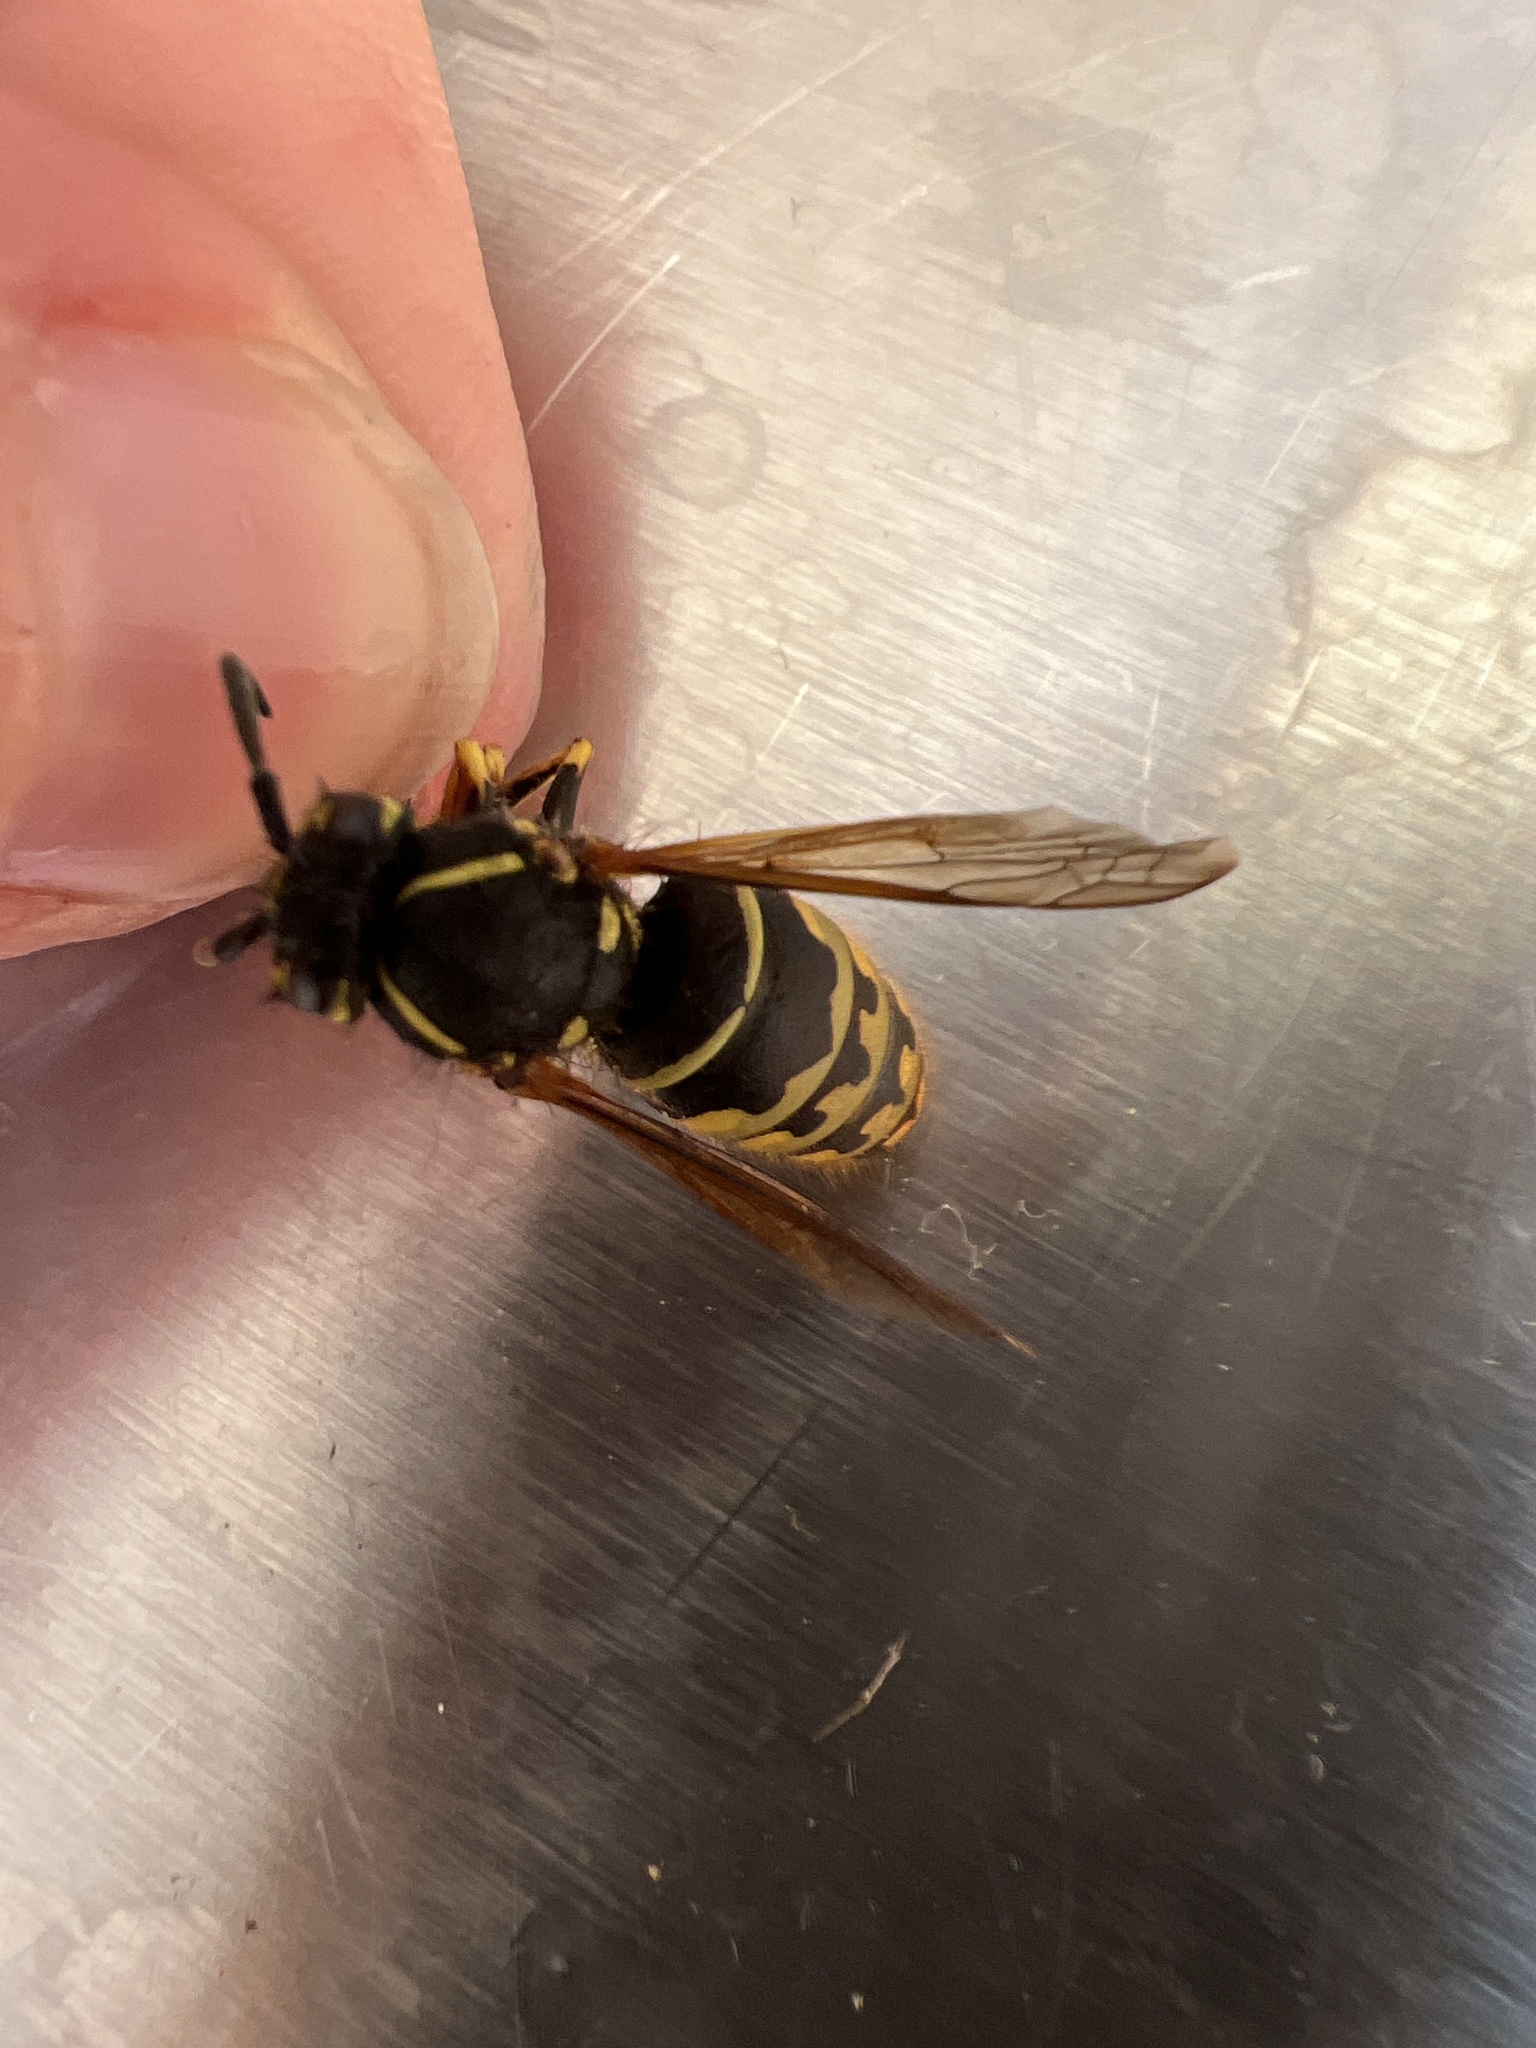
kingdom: Animalia
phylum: Arthropoda
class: Insecta
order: Hymenoptera
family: Vespidae
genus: Vespula
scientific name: Vespula alascensis
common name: Alaska yellowjacket
